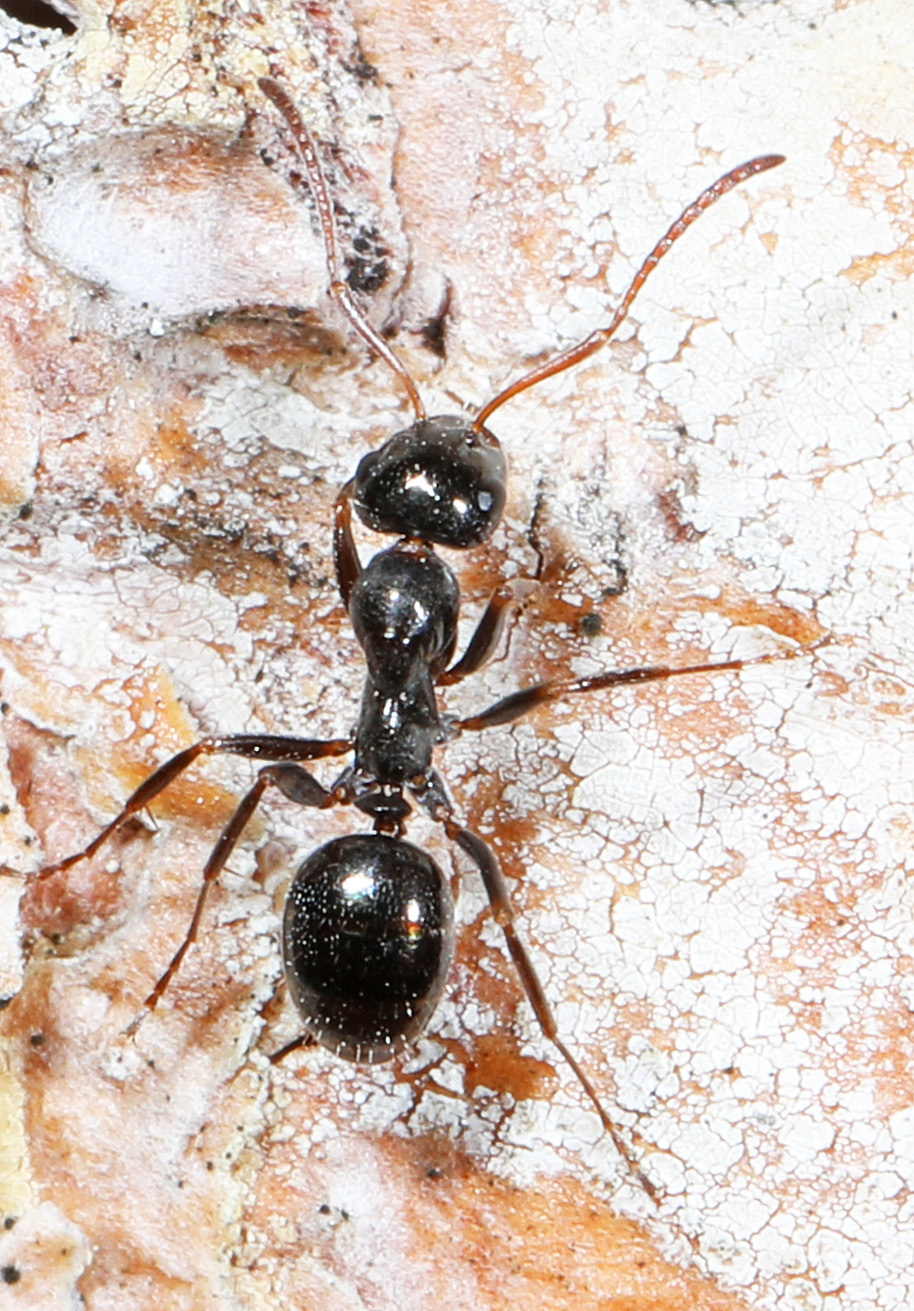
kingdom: Animalia
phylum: Arthropoda
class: Insecta
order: Hymenoptera
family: Formicidae
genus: Formica
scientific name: Formica lasioides
